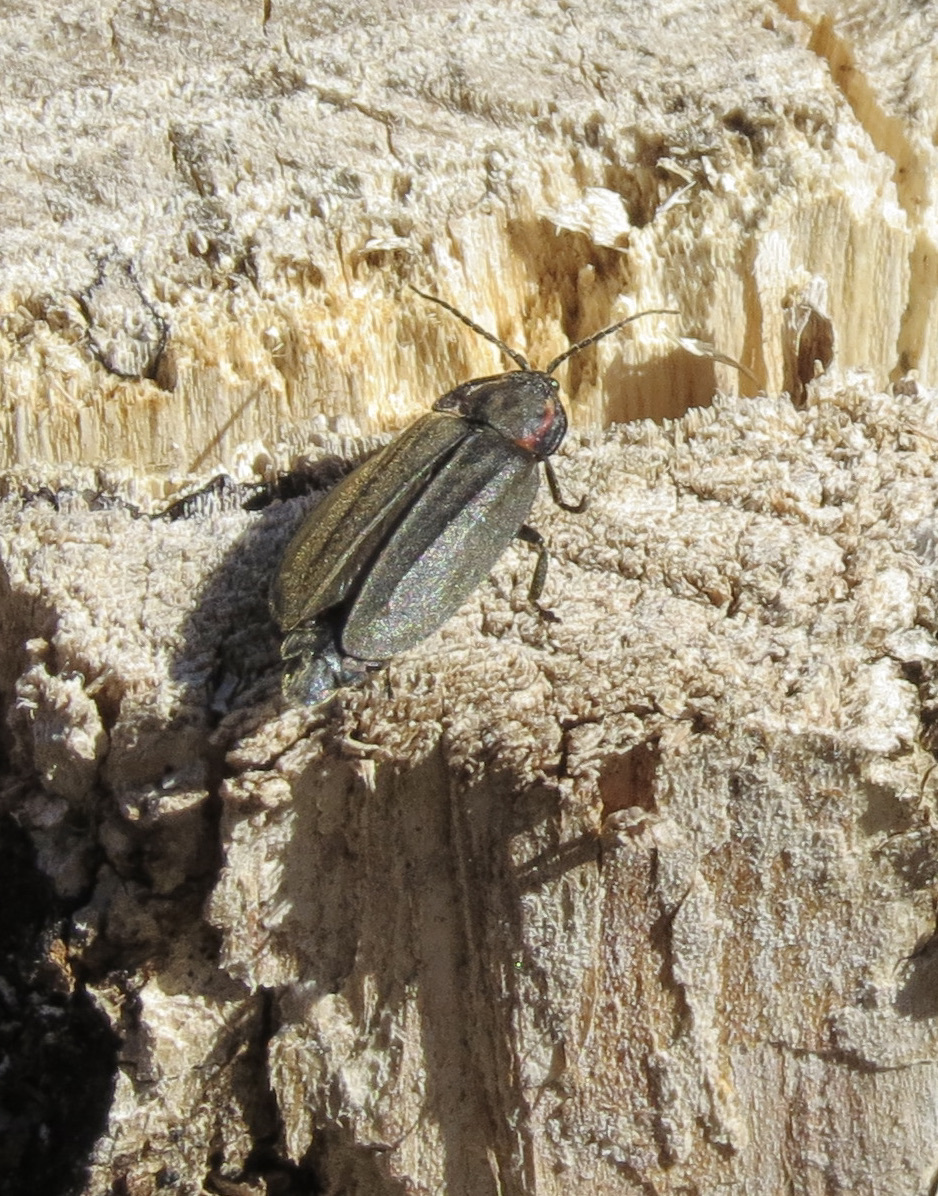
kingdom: Animalia
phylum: Arthropoda
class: Insecta
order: Coleoptera
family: Lampyridae
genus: Photinus
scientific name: Photinus corrusca
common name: Winter firefly
